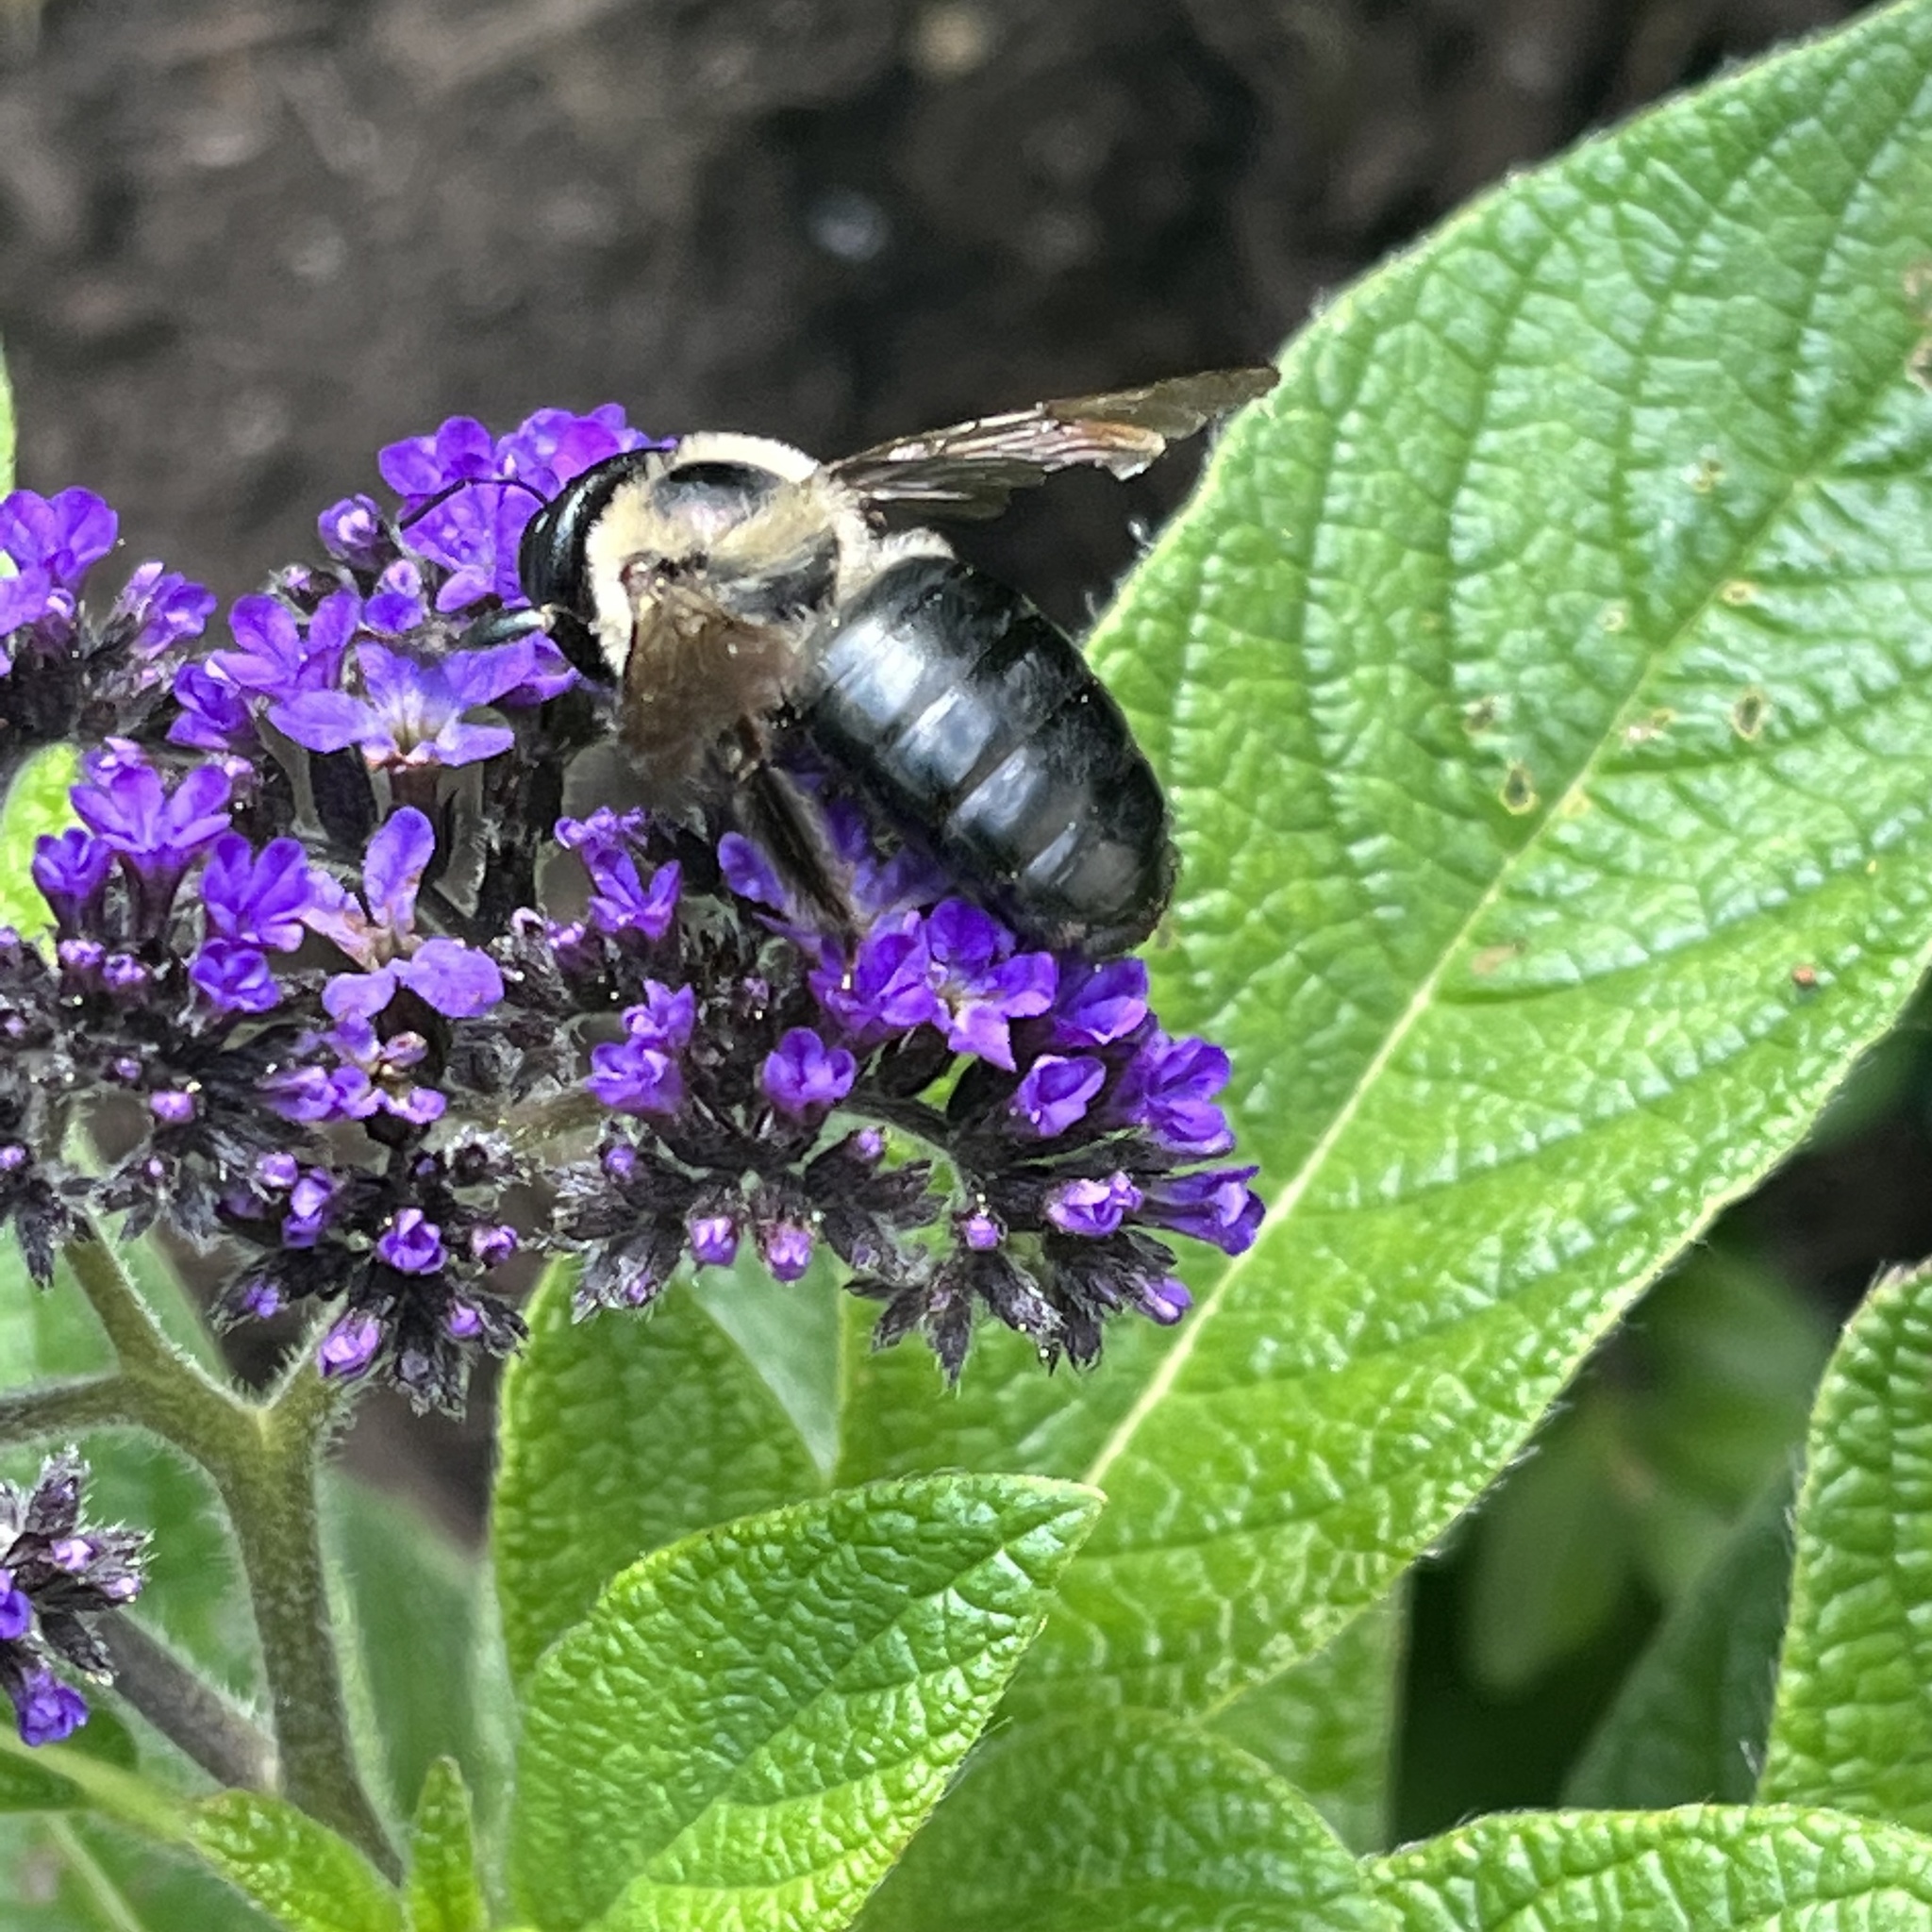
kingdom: Animalia
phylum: Arthropoda
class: Insecta
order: Hymenoptera
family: Apidae
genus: Xylocopa
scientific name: Xylocopa virginica
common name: Carpenter bee
